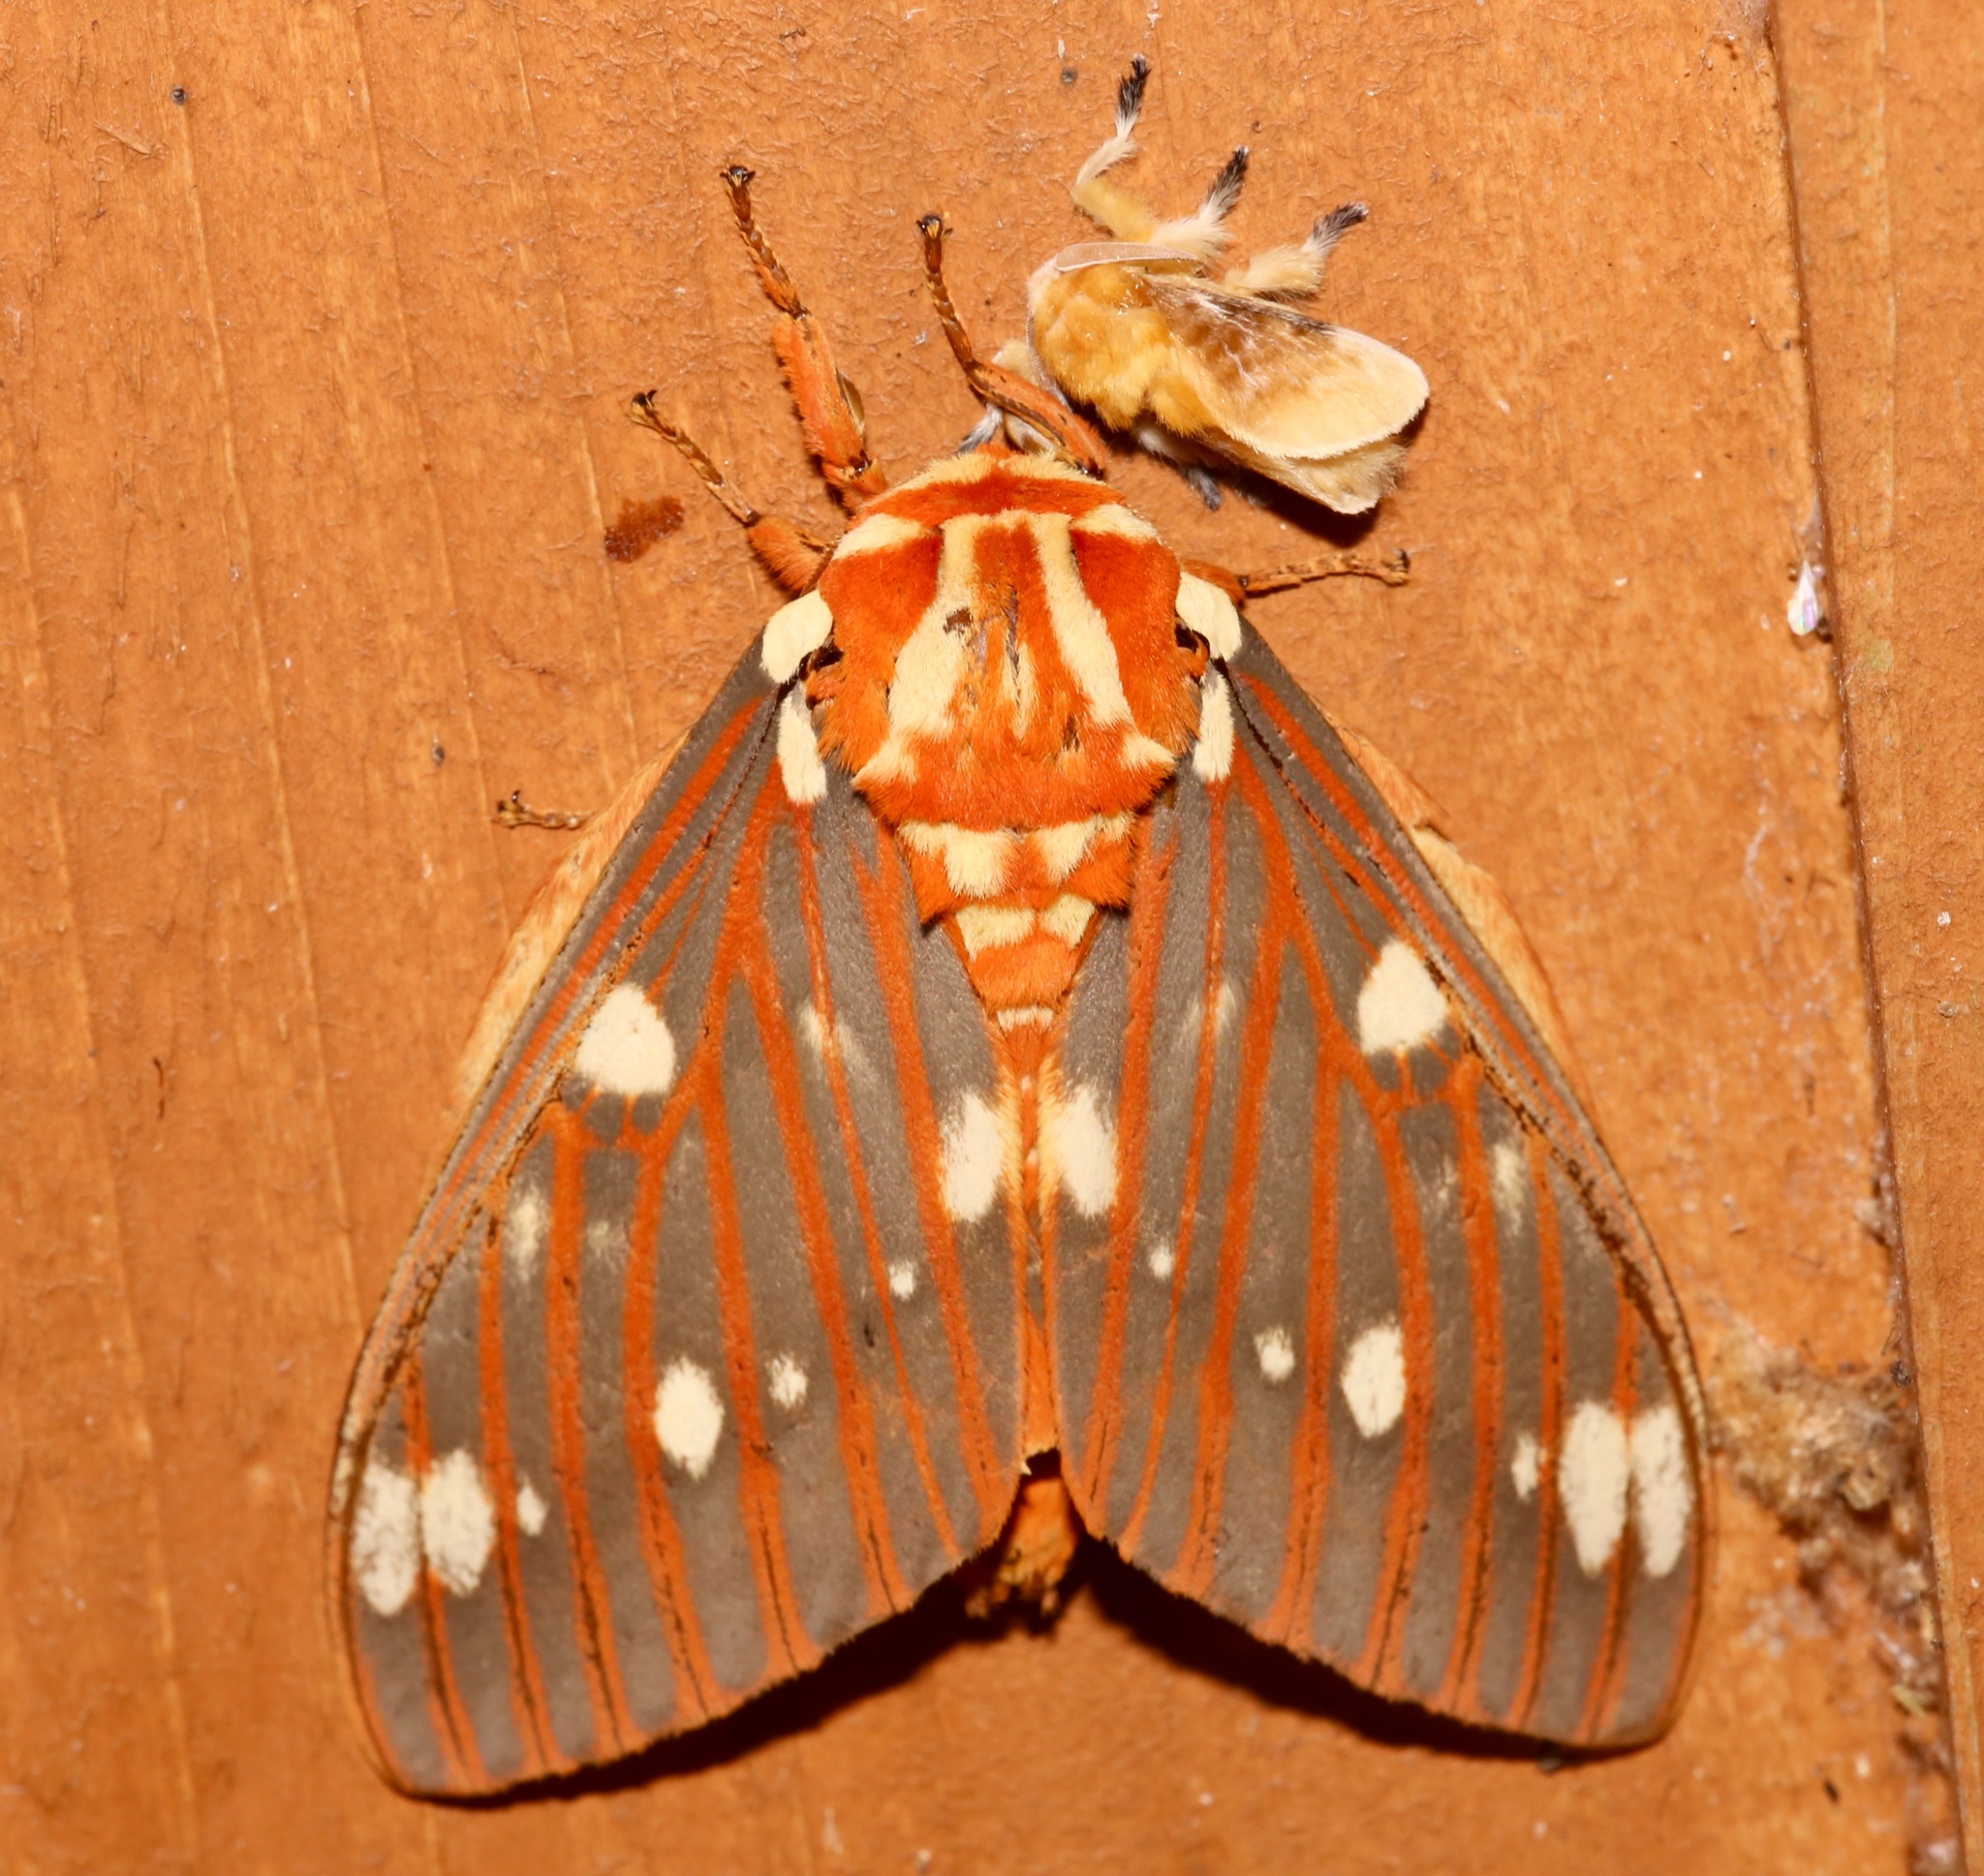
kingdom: Animalia
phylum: Arthropoda
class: Insecta
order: Lepidoptera
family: Saturniidae
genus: Citheronia
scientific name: Citheronia regalis
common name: Hickory horned devil
